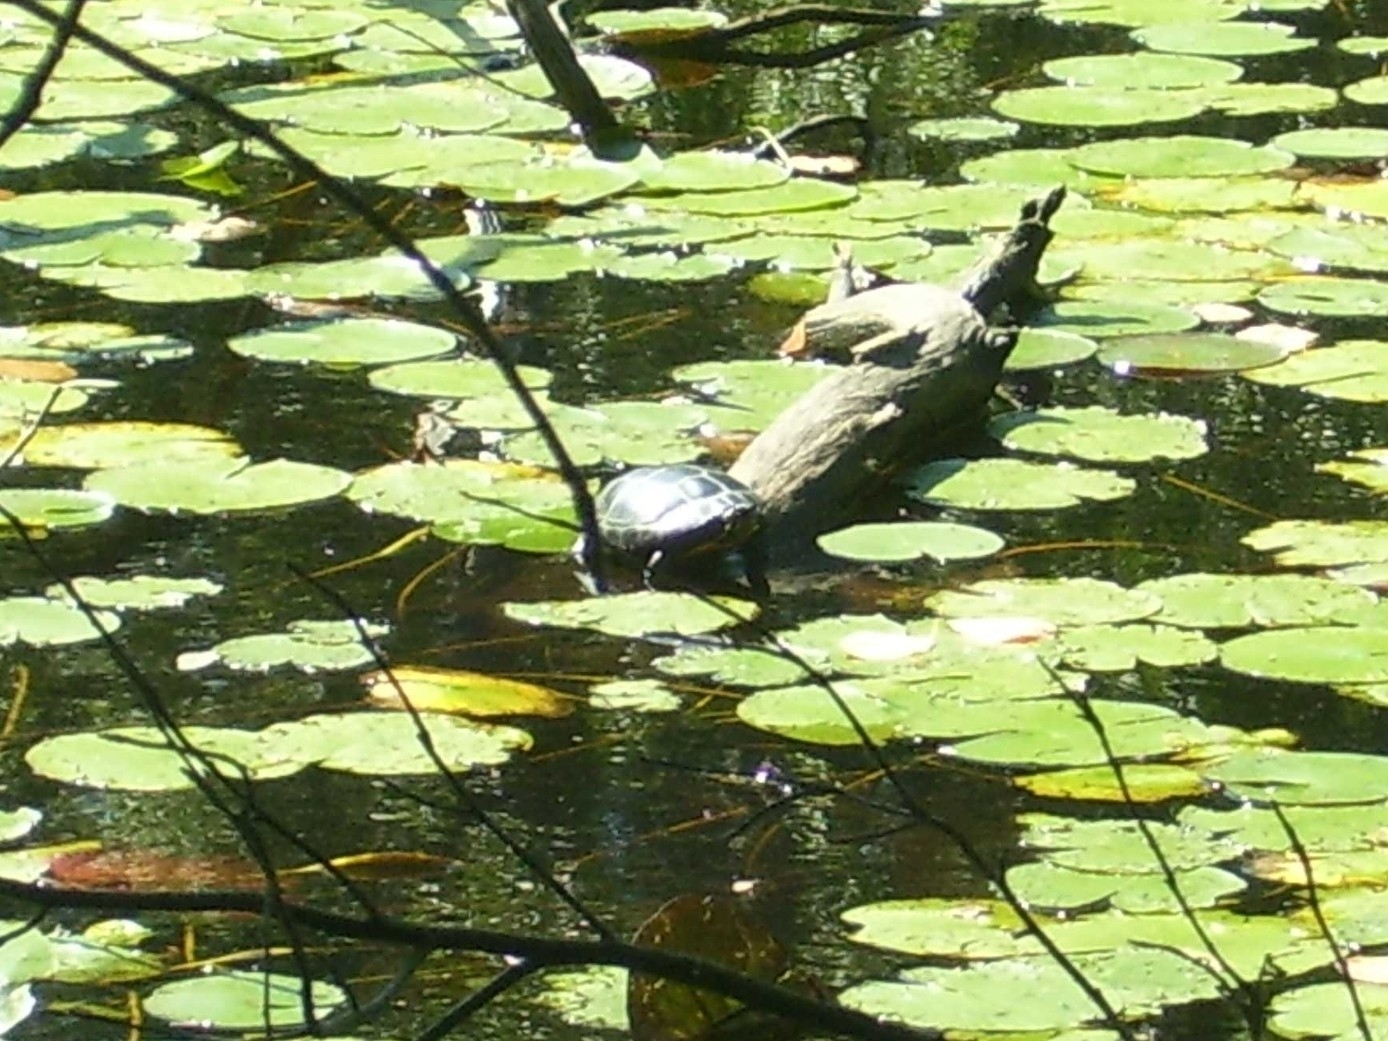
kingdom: Animalia
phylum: Chordata
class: Testudines
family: Emydidae
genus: Chrysemys
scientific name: Chrysemys picta
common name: Painted turtle
